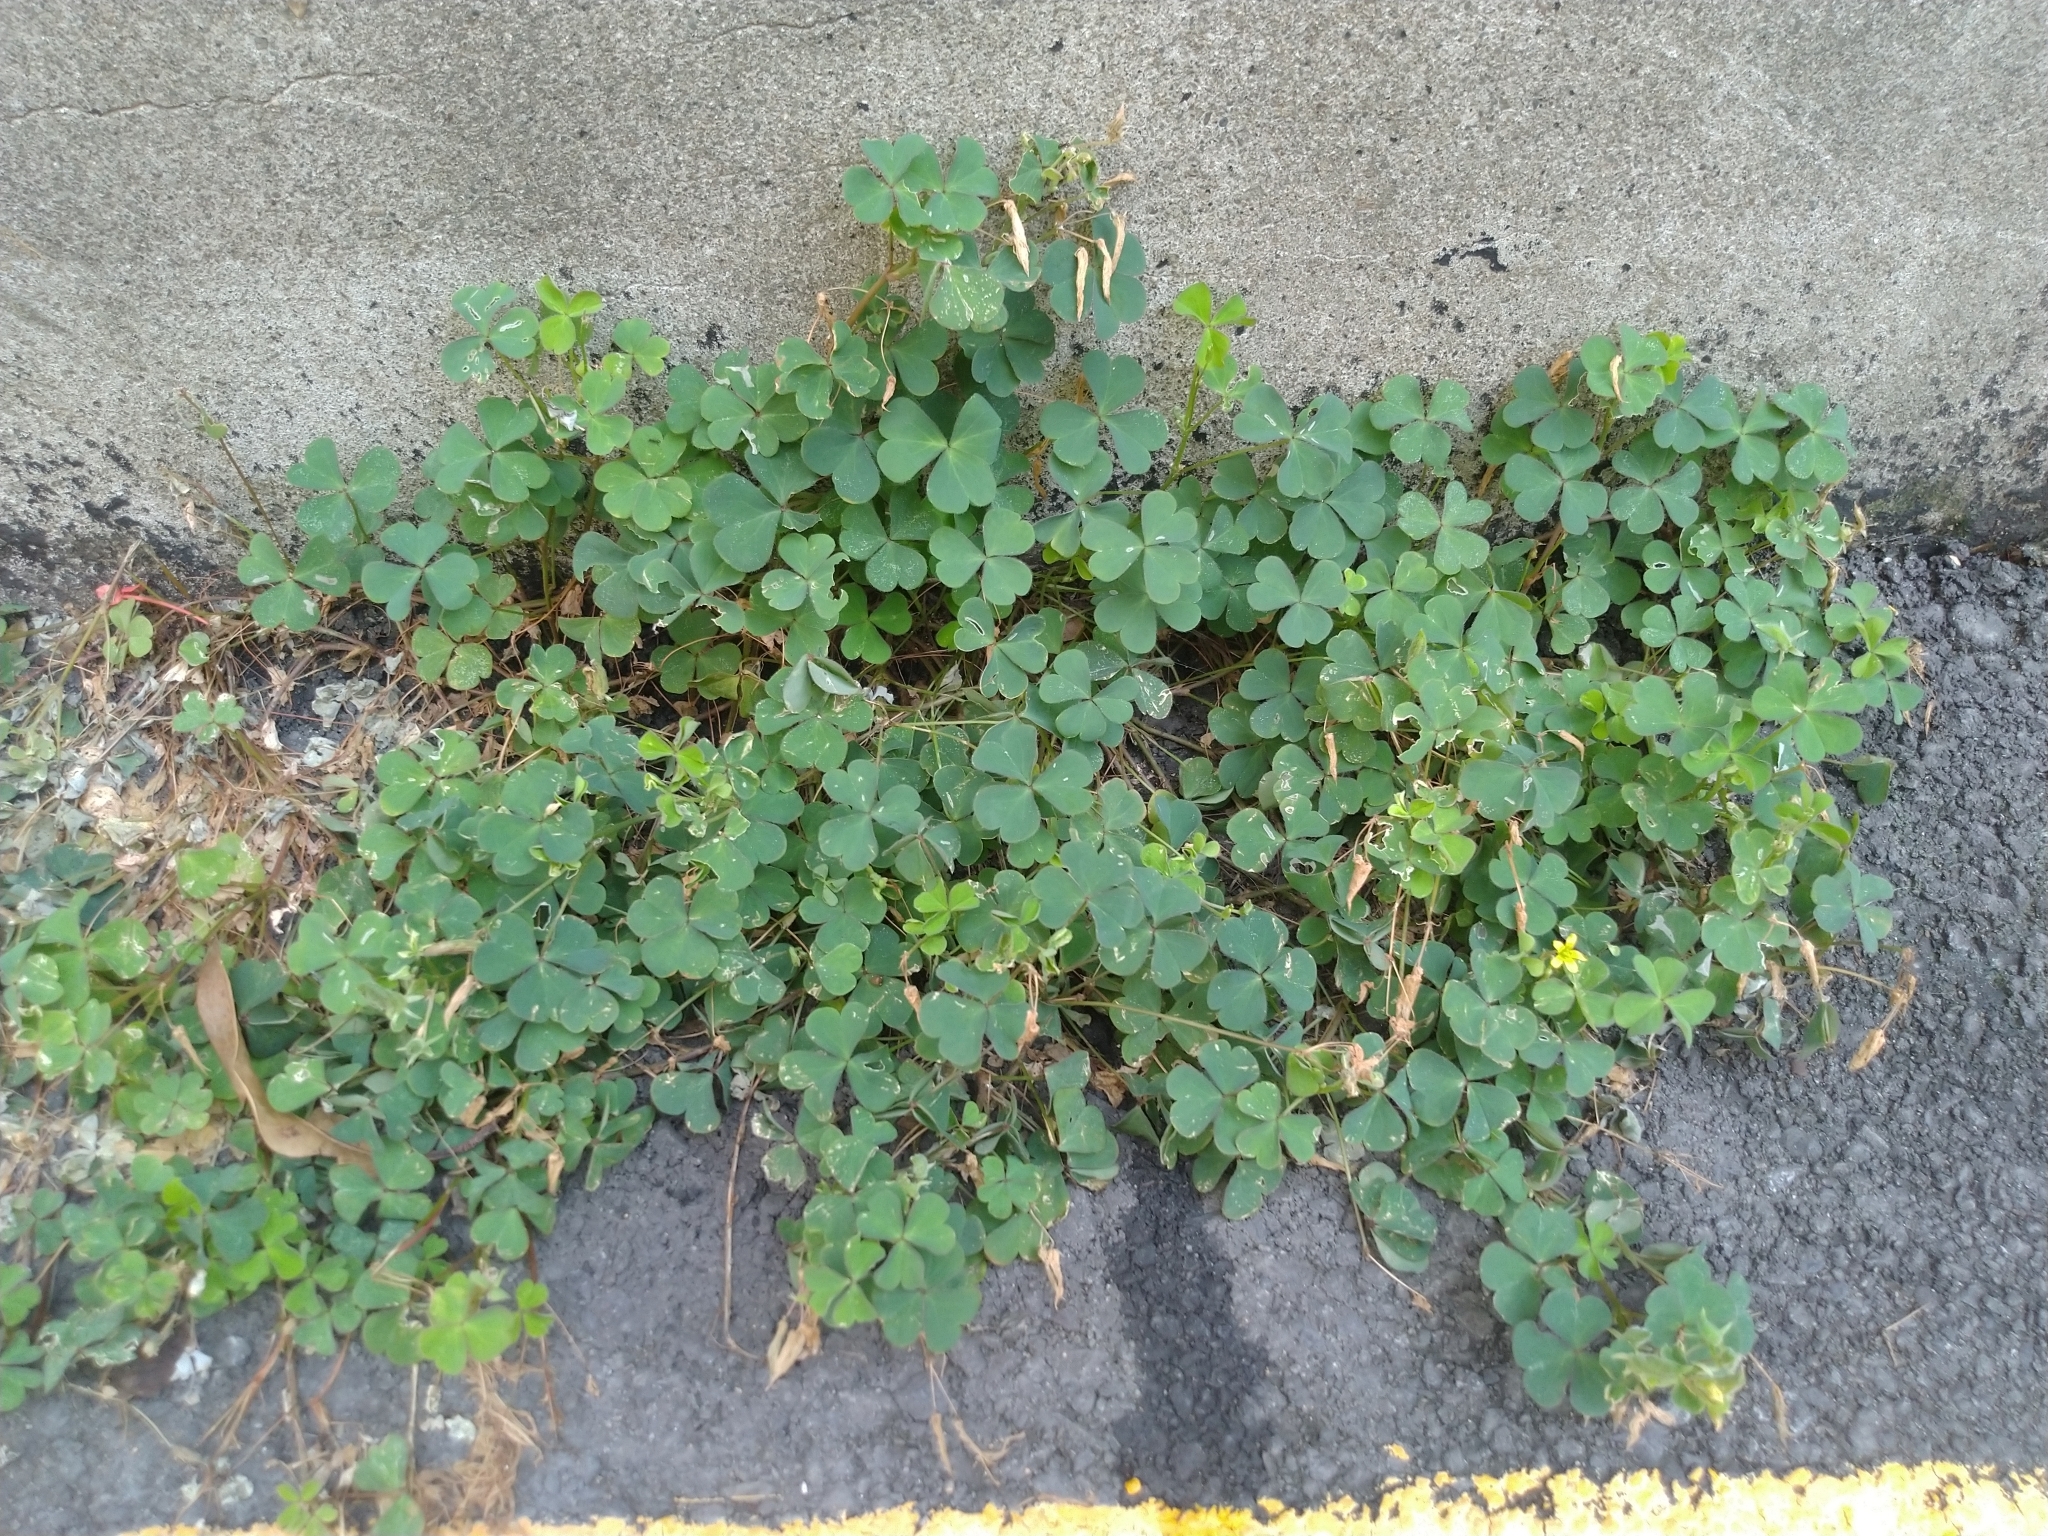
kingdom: Plantae
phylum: Tracheophyta
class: Magnoliopsida
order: Oxalidales
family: Oxalidaceae
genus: Oxalis
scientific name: Oxalis corniculata
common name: Procumbent yellow-sorrel
